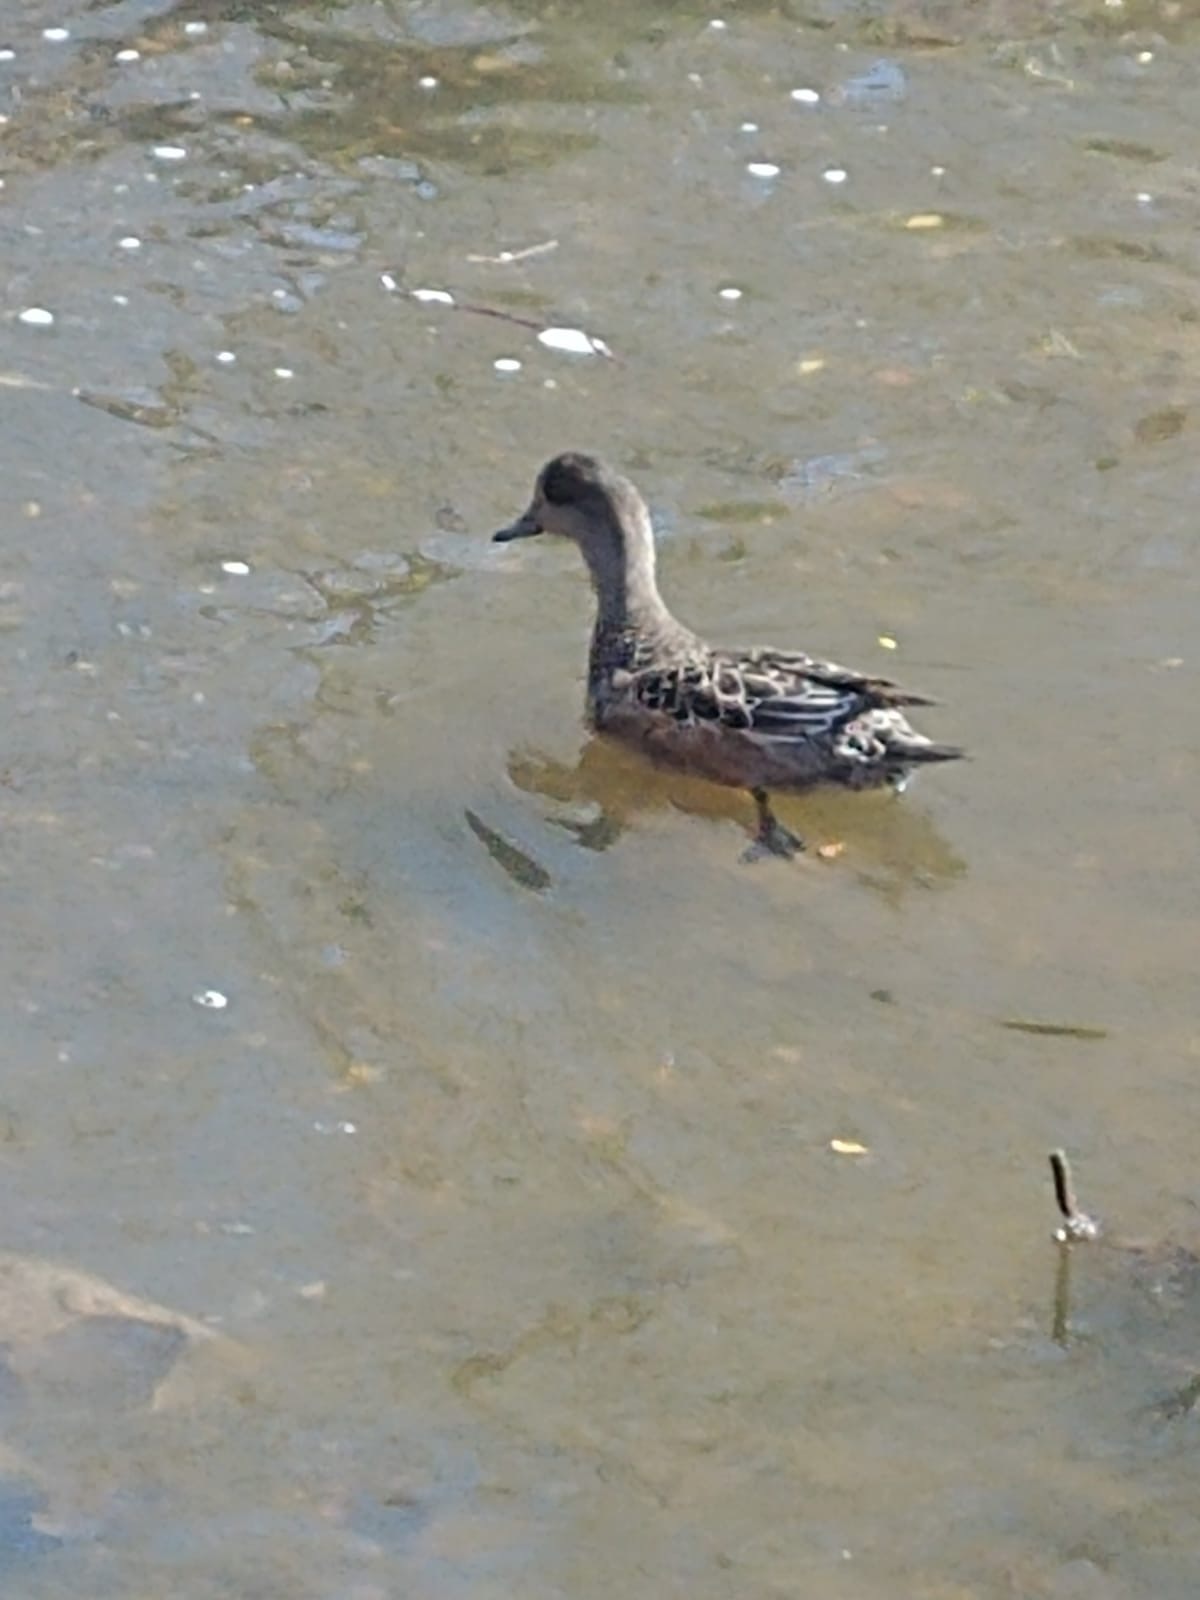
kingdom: Animalia
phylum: Chordata
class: Aves
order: Anseriformes
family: Anatidae
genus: Mareca
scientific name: Mareca americana
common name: American wigeon
